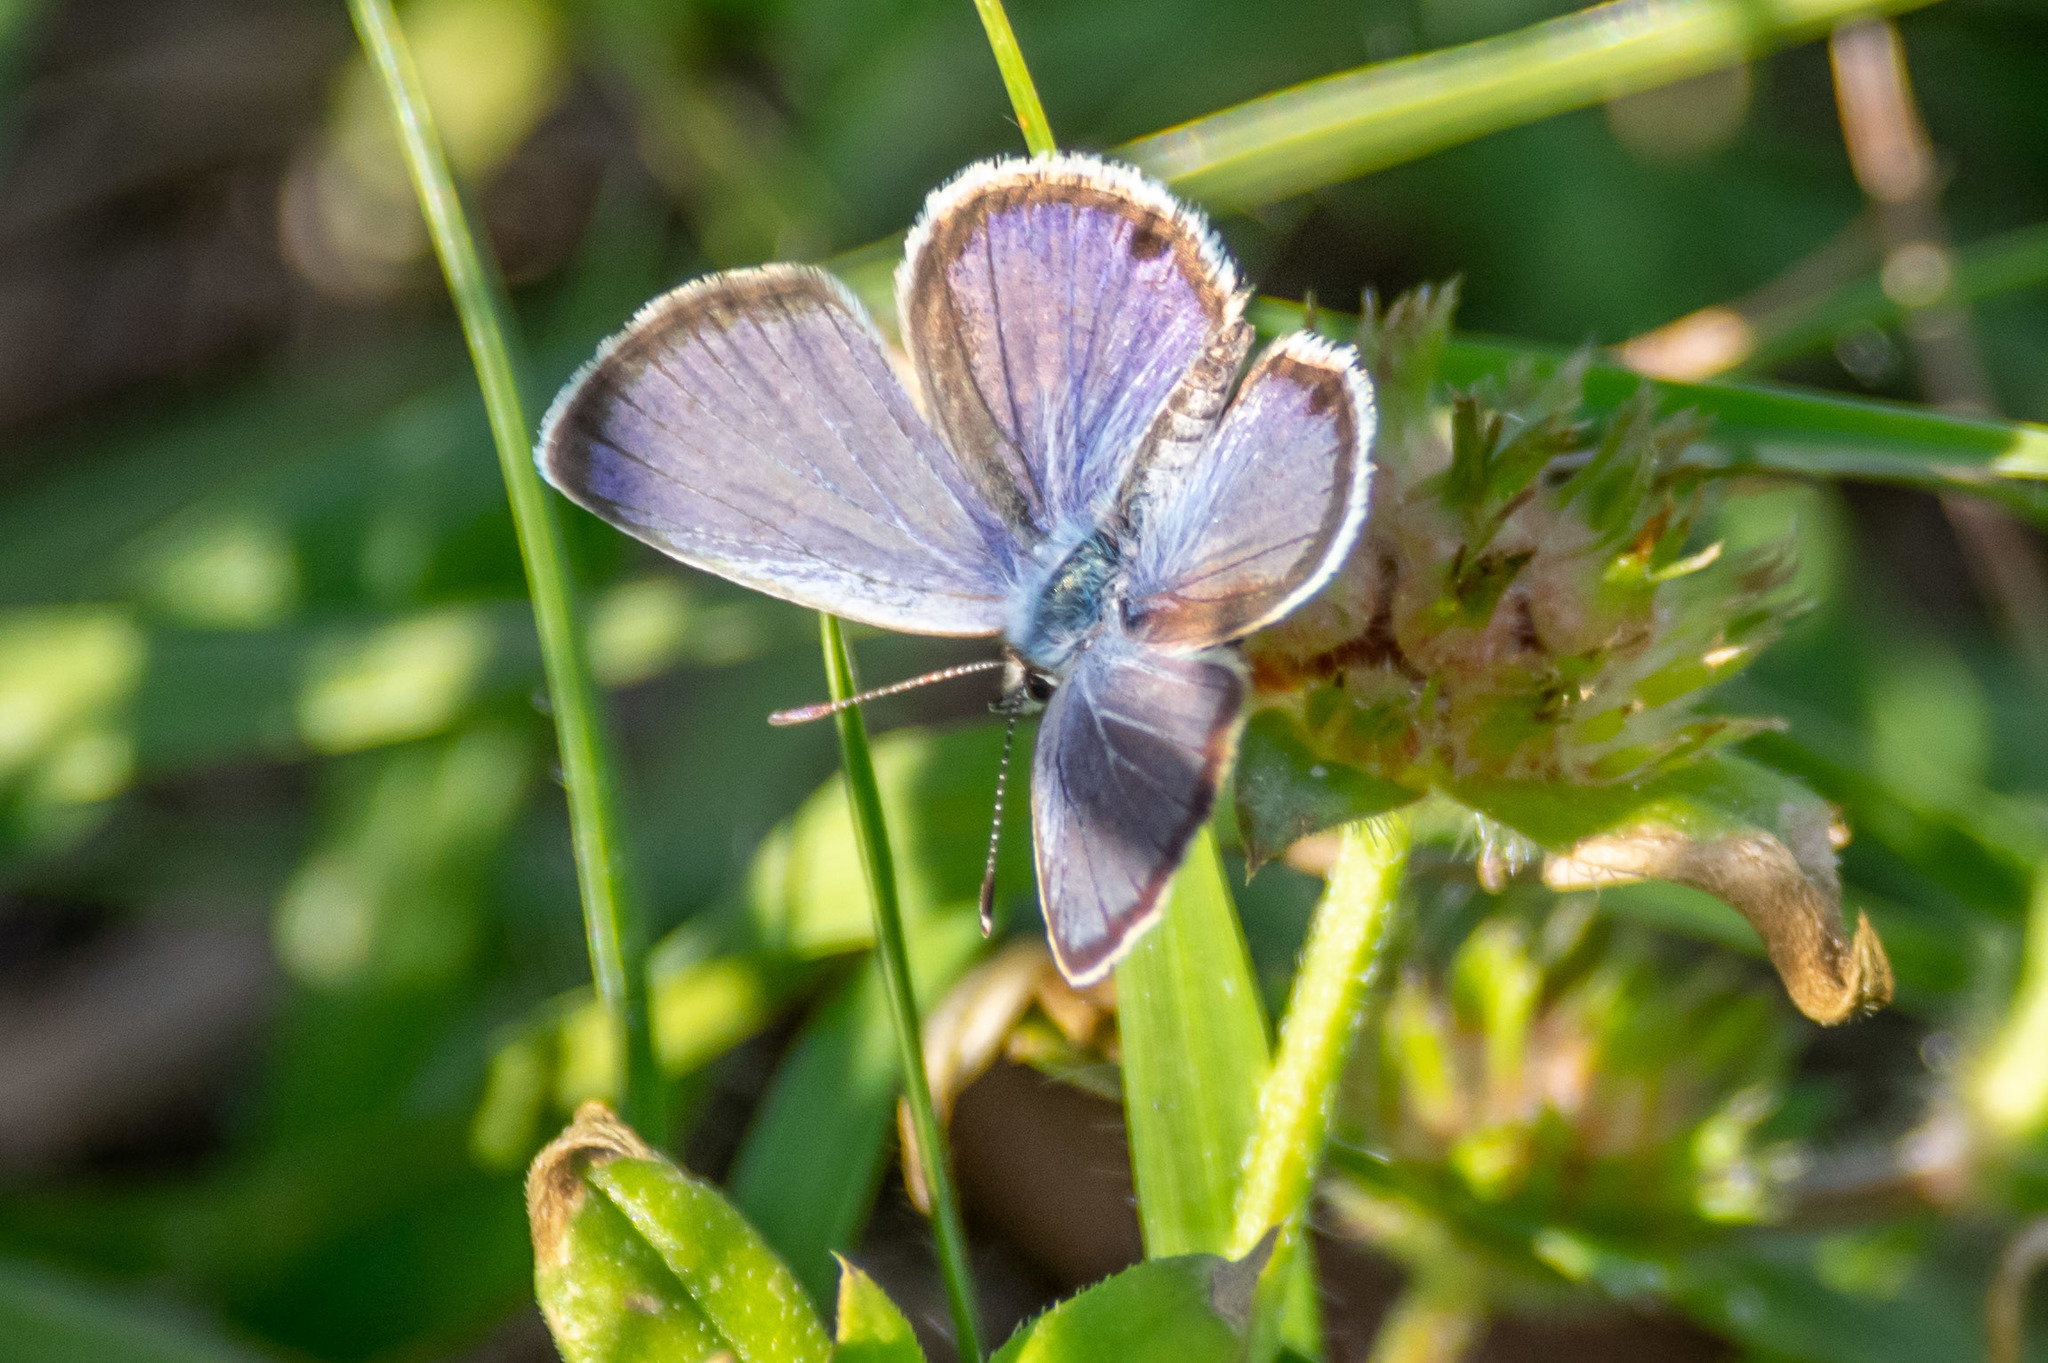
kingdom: Animalia
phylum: Arthropoda
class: Insecta
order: Lepidoptera
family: Lycaenidae
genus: Hemiargus
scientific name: Hemiargus ceraunus
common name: Ceraunus blue
